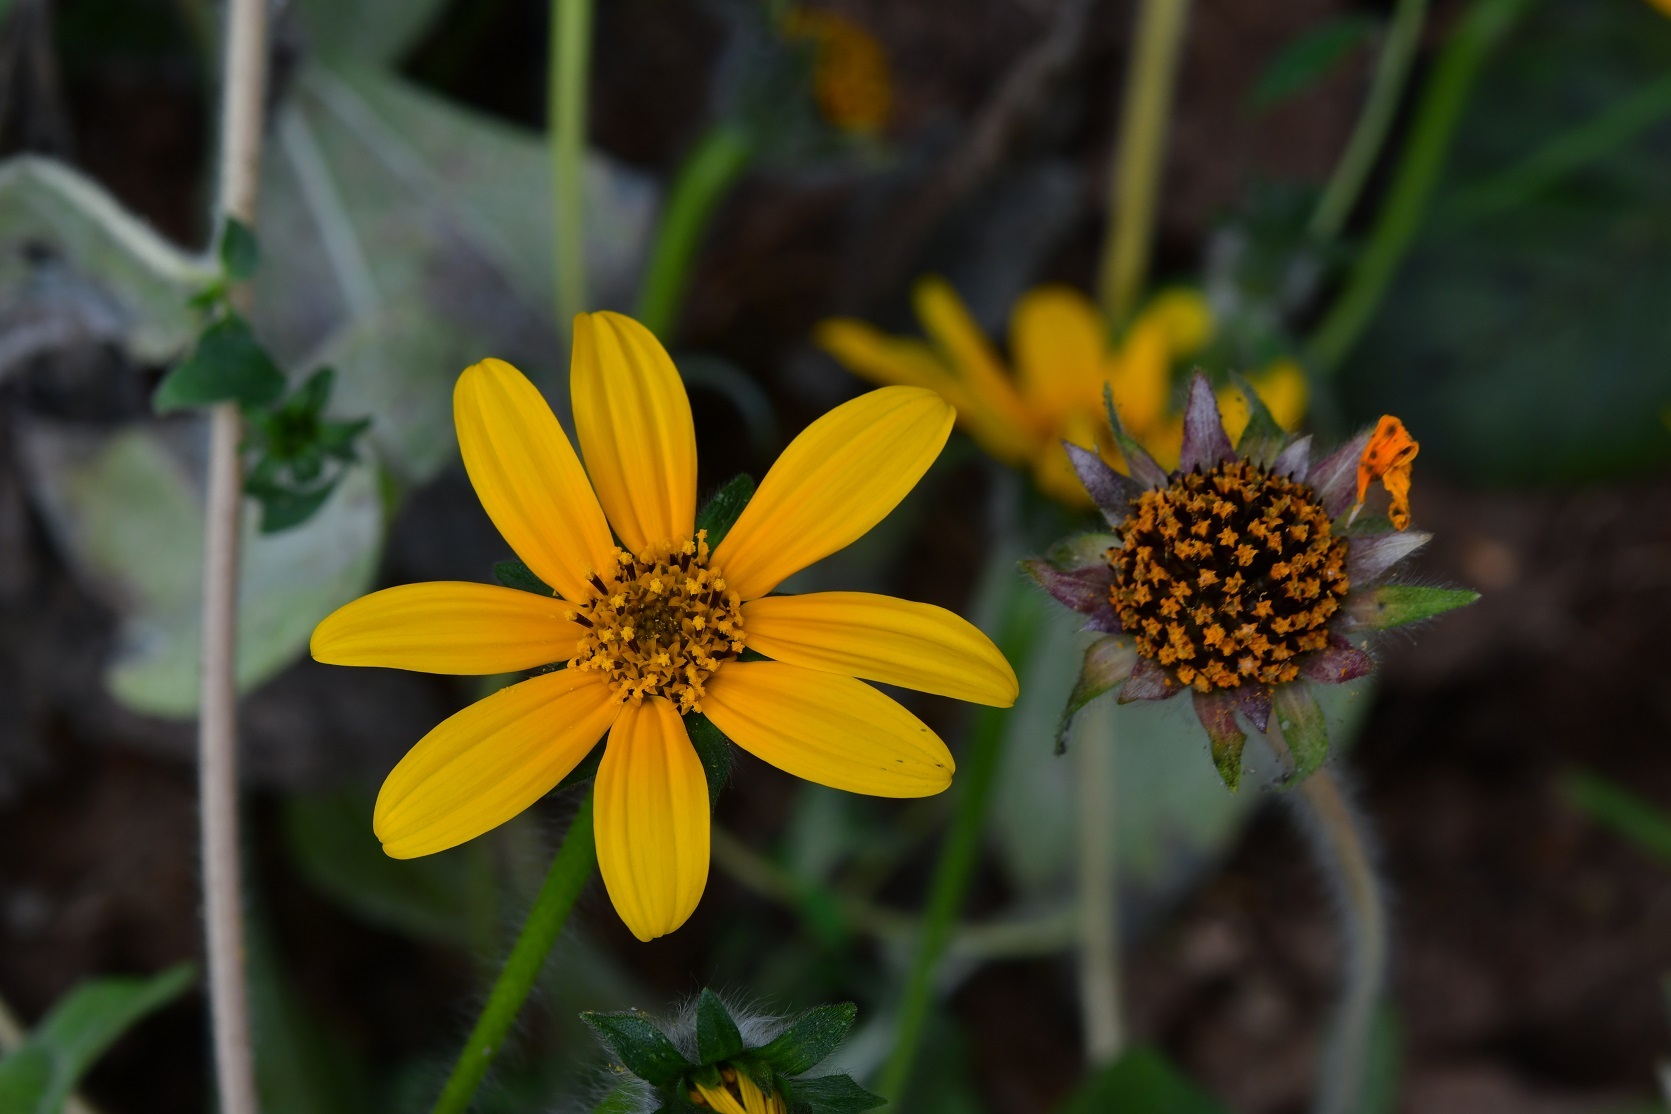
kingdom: Plantae
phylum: Tracheophyta
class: Magnoliopsida
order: Asterales
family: Asteraceae
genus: Tithonia
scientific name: Tithonia tubaeformis
